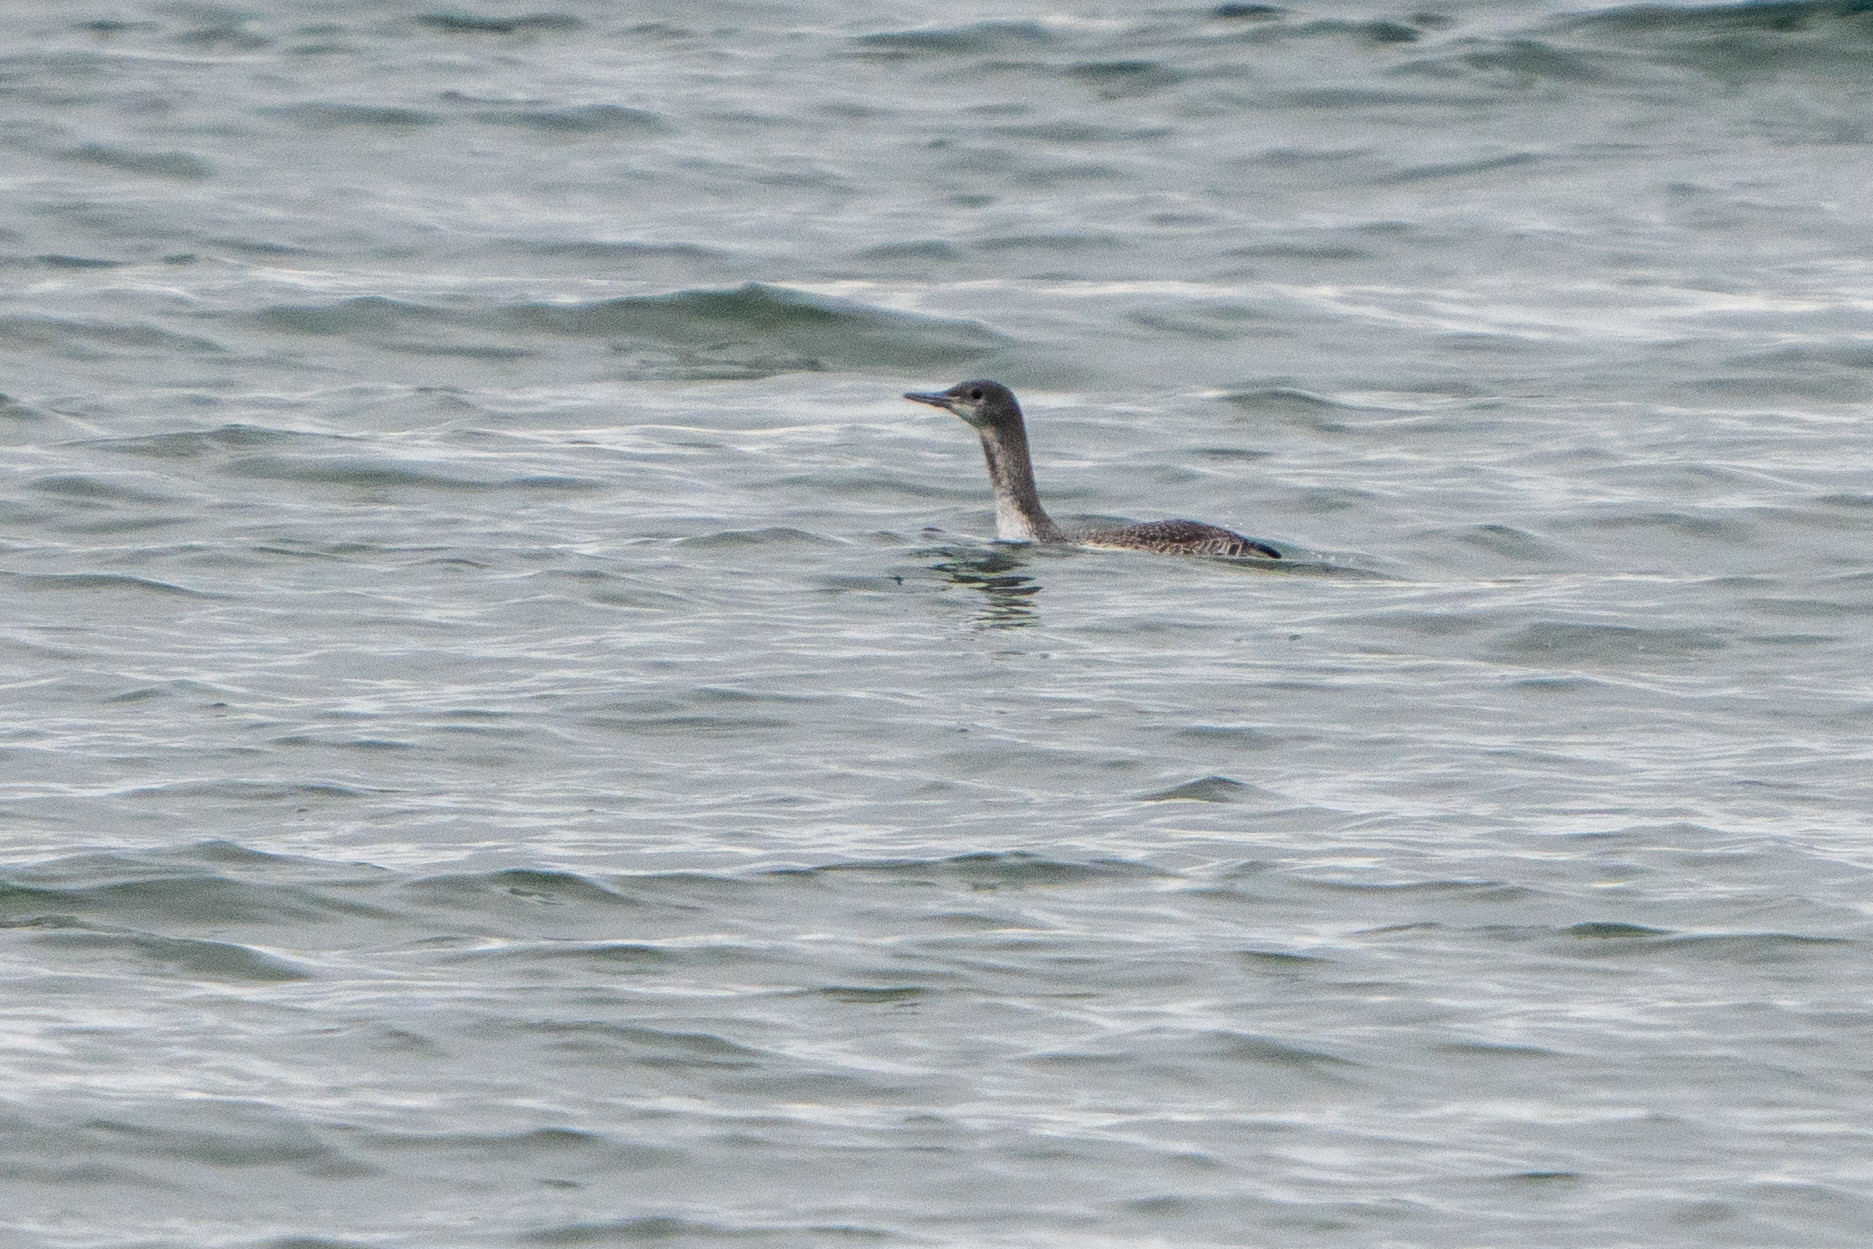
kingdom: Animalia
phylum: Chordata
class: Aves
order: Gaviiformes
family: Gaviidae
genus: Gavia
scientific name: Gavia stellata
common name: Red-throated loon
